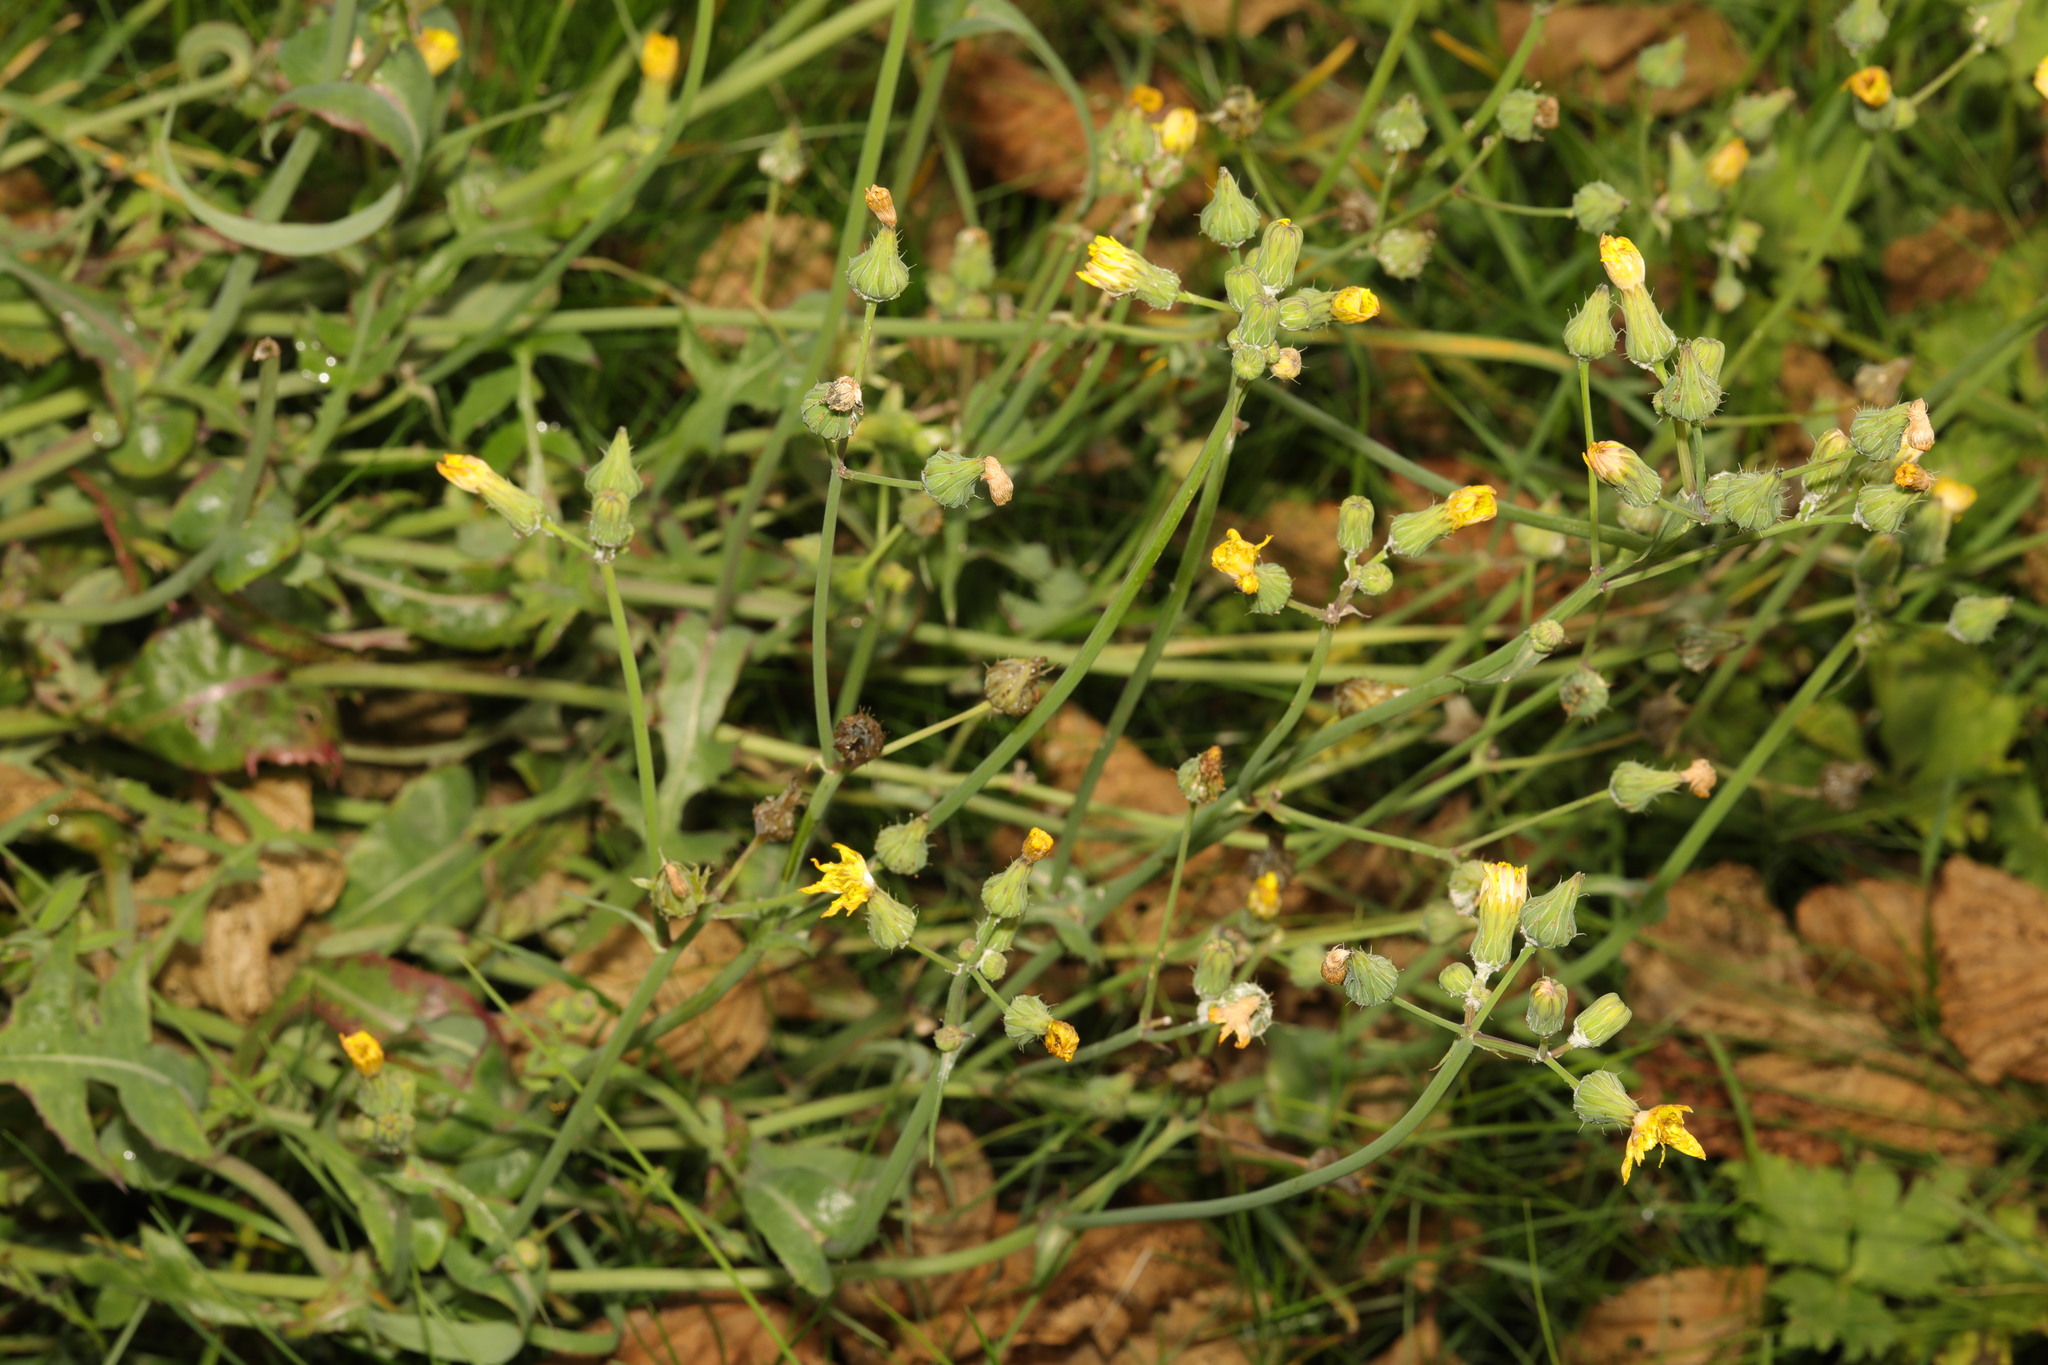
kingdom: Plantae
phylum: Tracheophyta
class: Magnoliopsida
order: Asterales
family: Asteraceae
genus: Sonchus
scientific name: Sonchus oleraceus
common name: Common sowthistle
